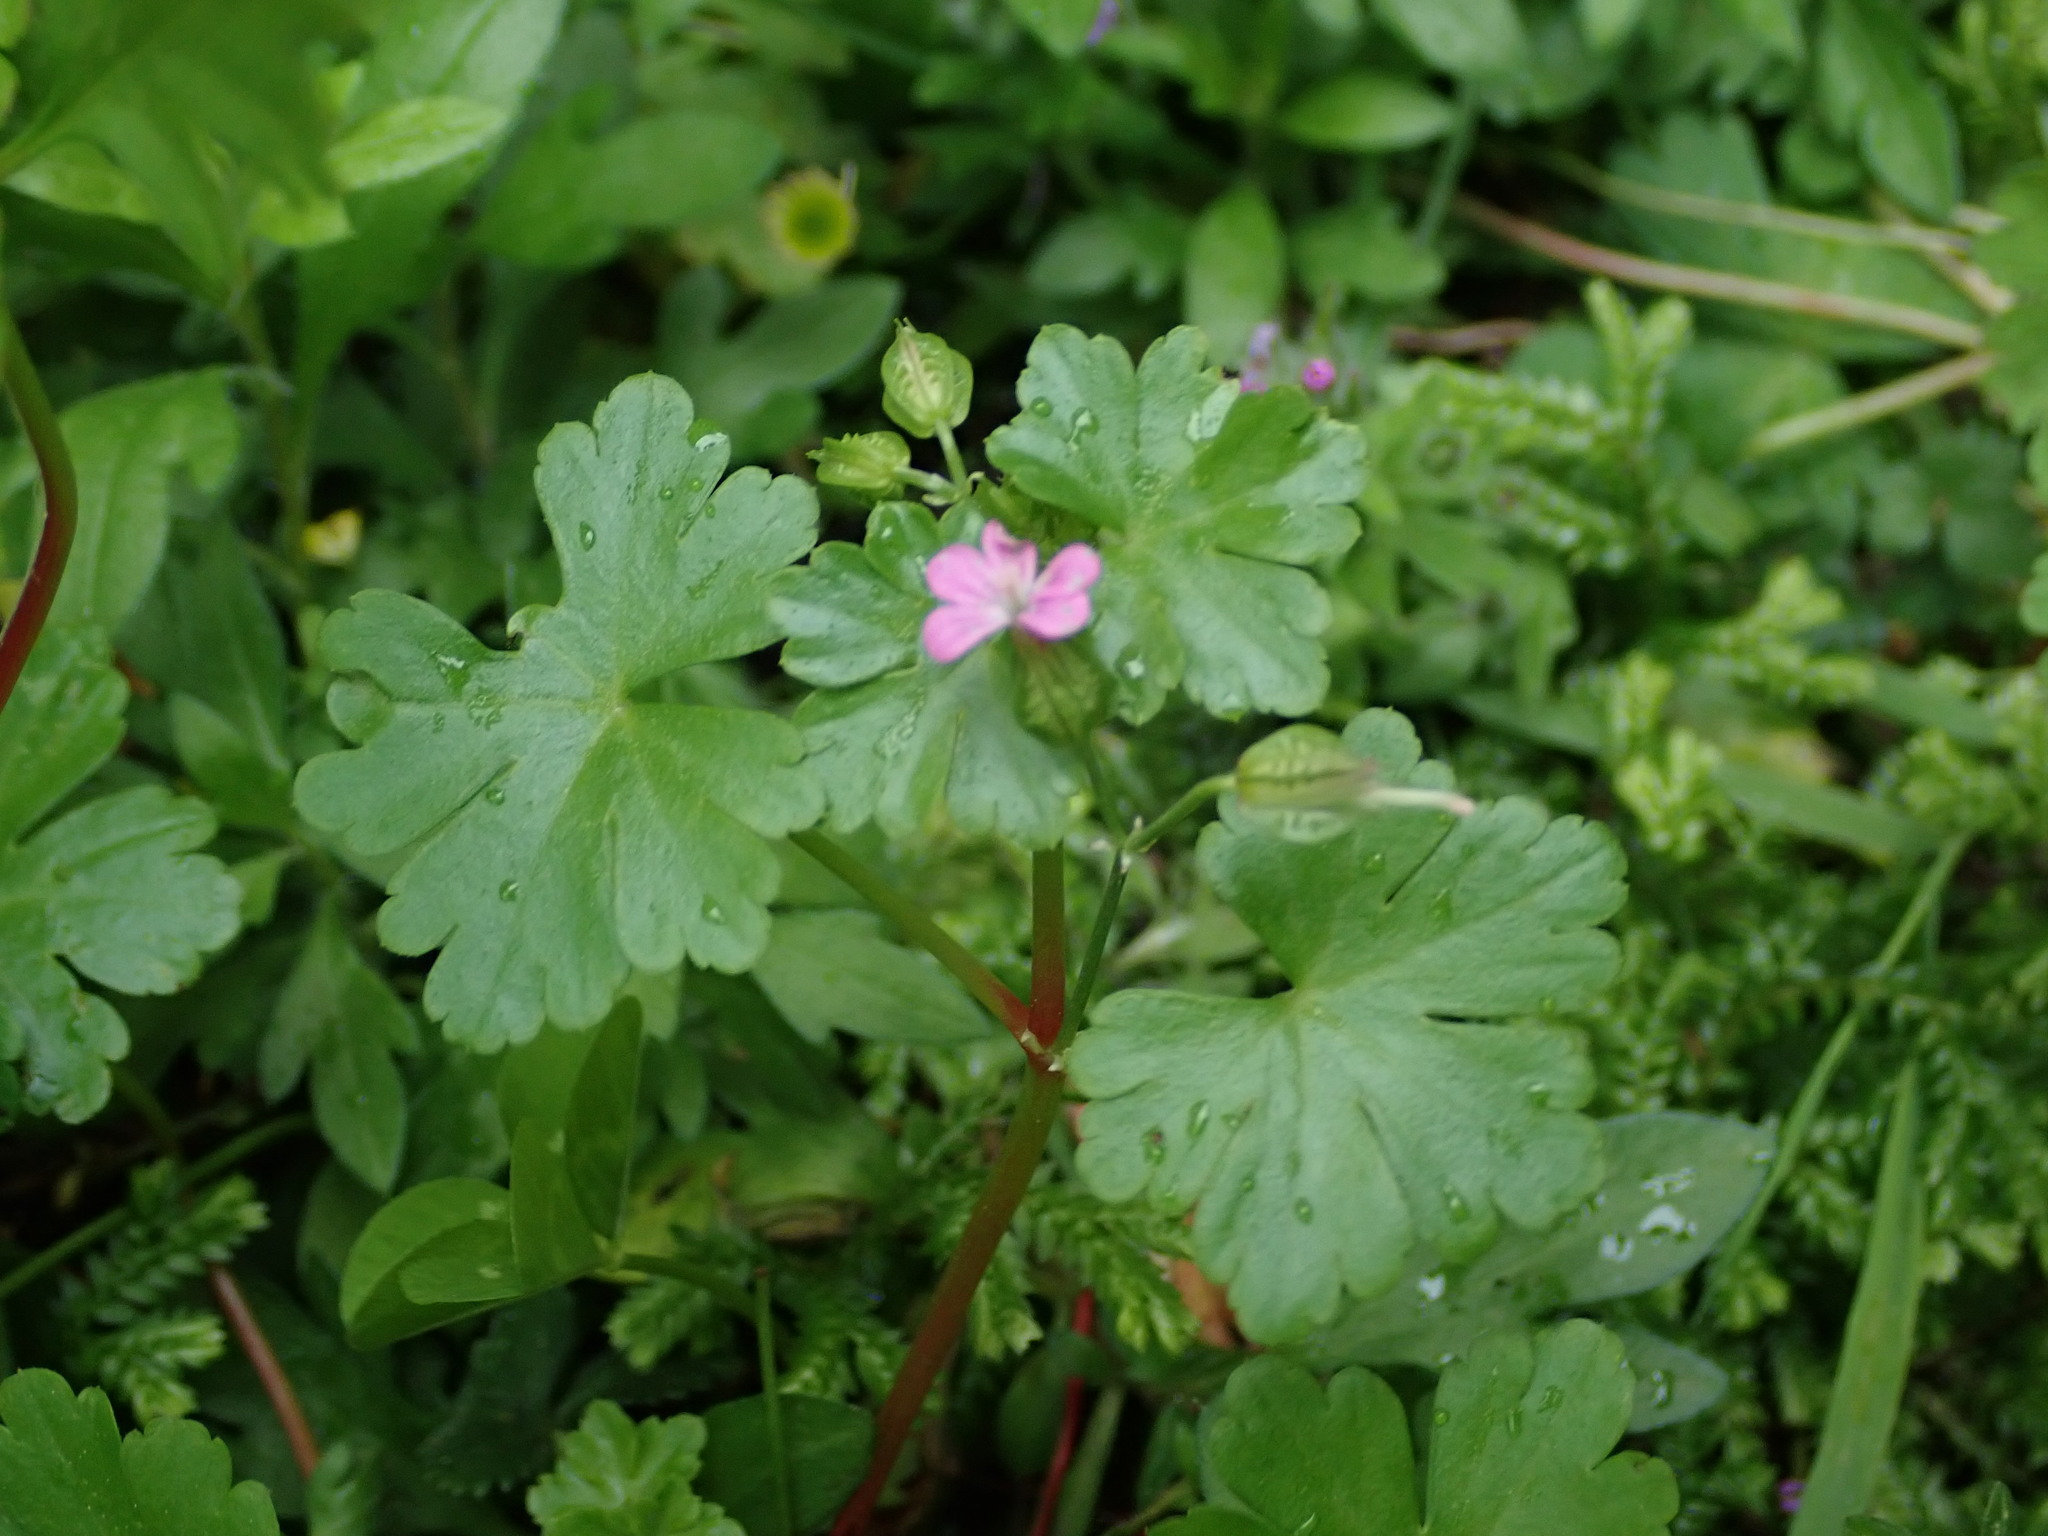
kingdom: Plantae
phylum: Tracheophyta
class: Magnoliopsida
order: Geraniales
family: Geraniaceae
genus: Geranium
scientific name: Geranium lucidum
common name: Shining crane's-bill
